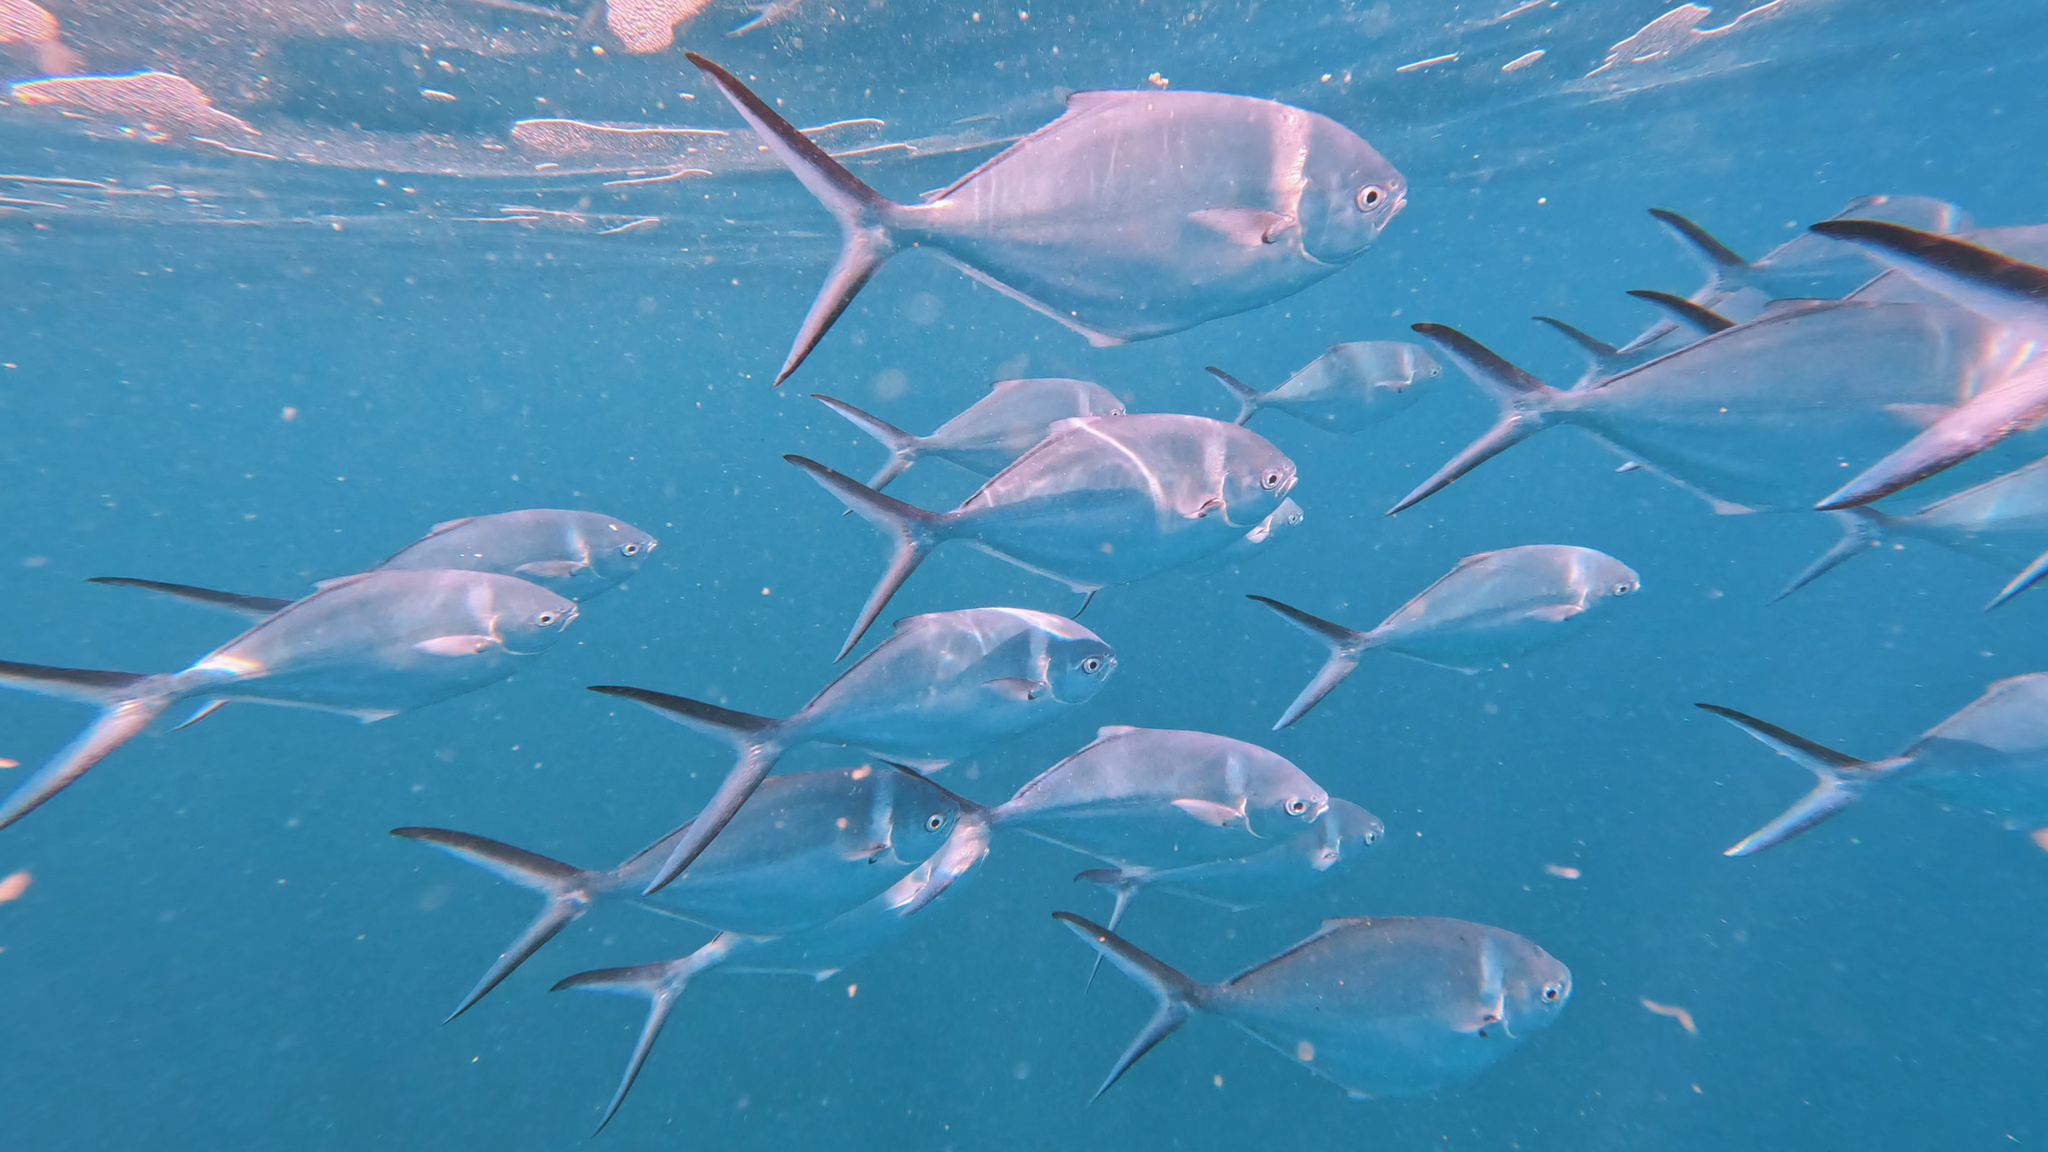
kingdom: Animalia
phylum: Chordata
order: Perciformes
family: Carangidae
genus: Trachinotus
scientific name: Trachinotus stilbe
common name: Steel pompano
